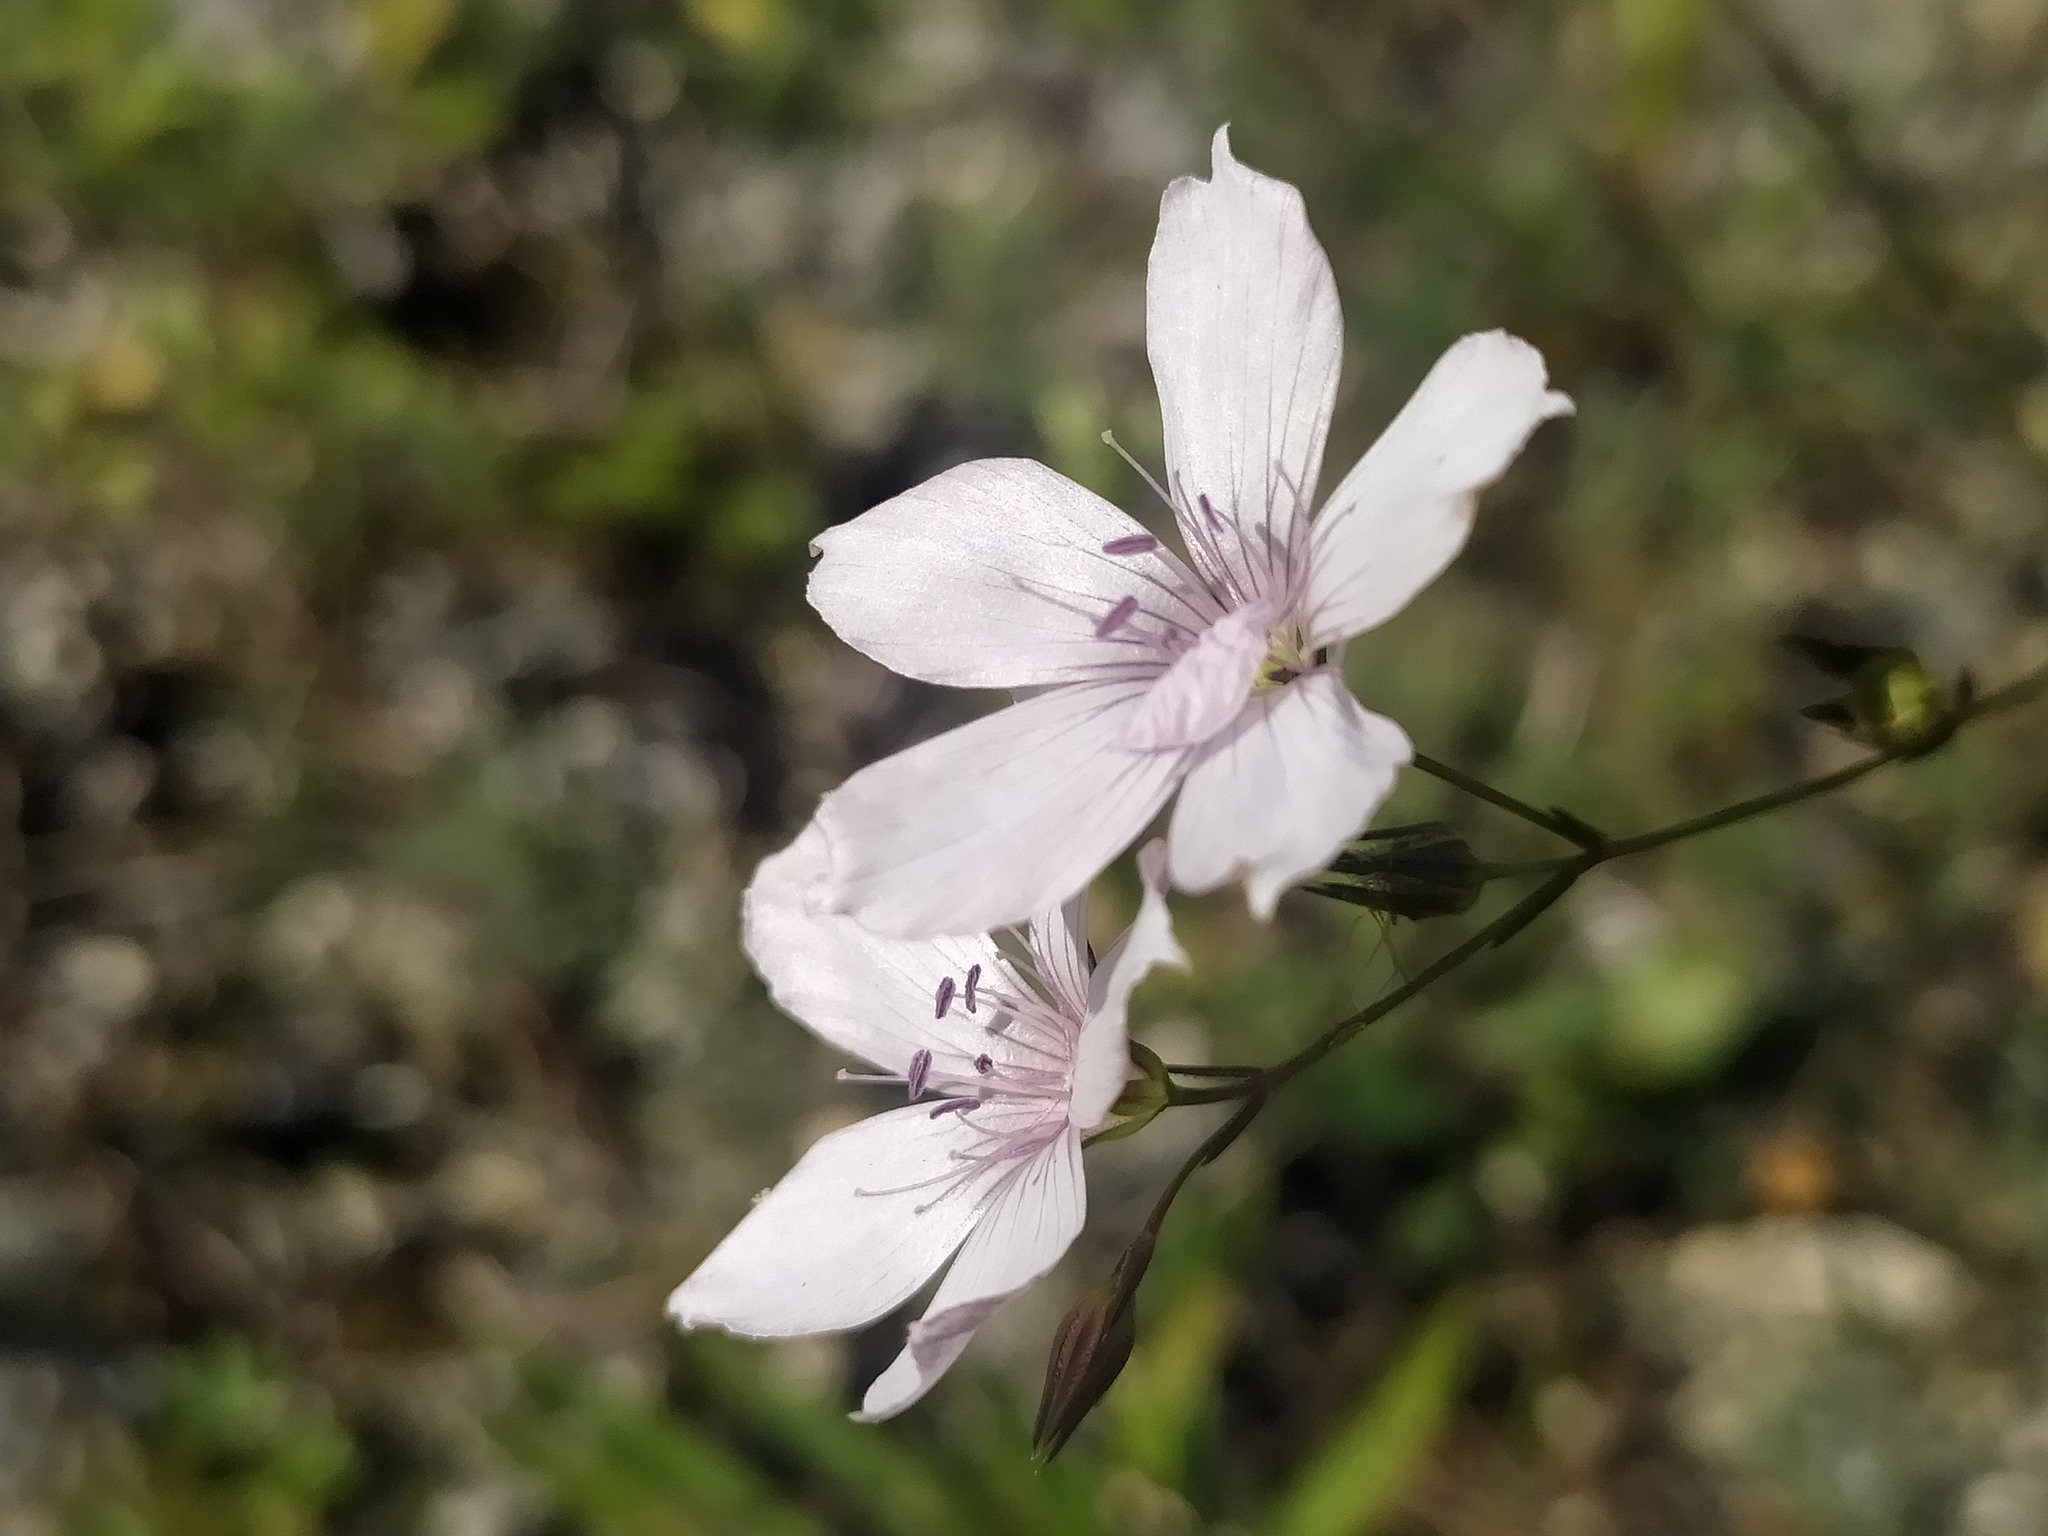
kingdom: Plantae
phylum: Tracheophyta
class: Magnoliopsida
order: Malpighiales
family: Linaceae
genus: Linum
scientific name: Linum tenuifolium
